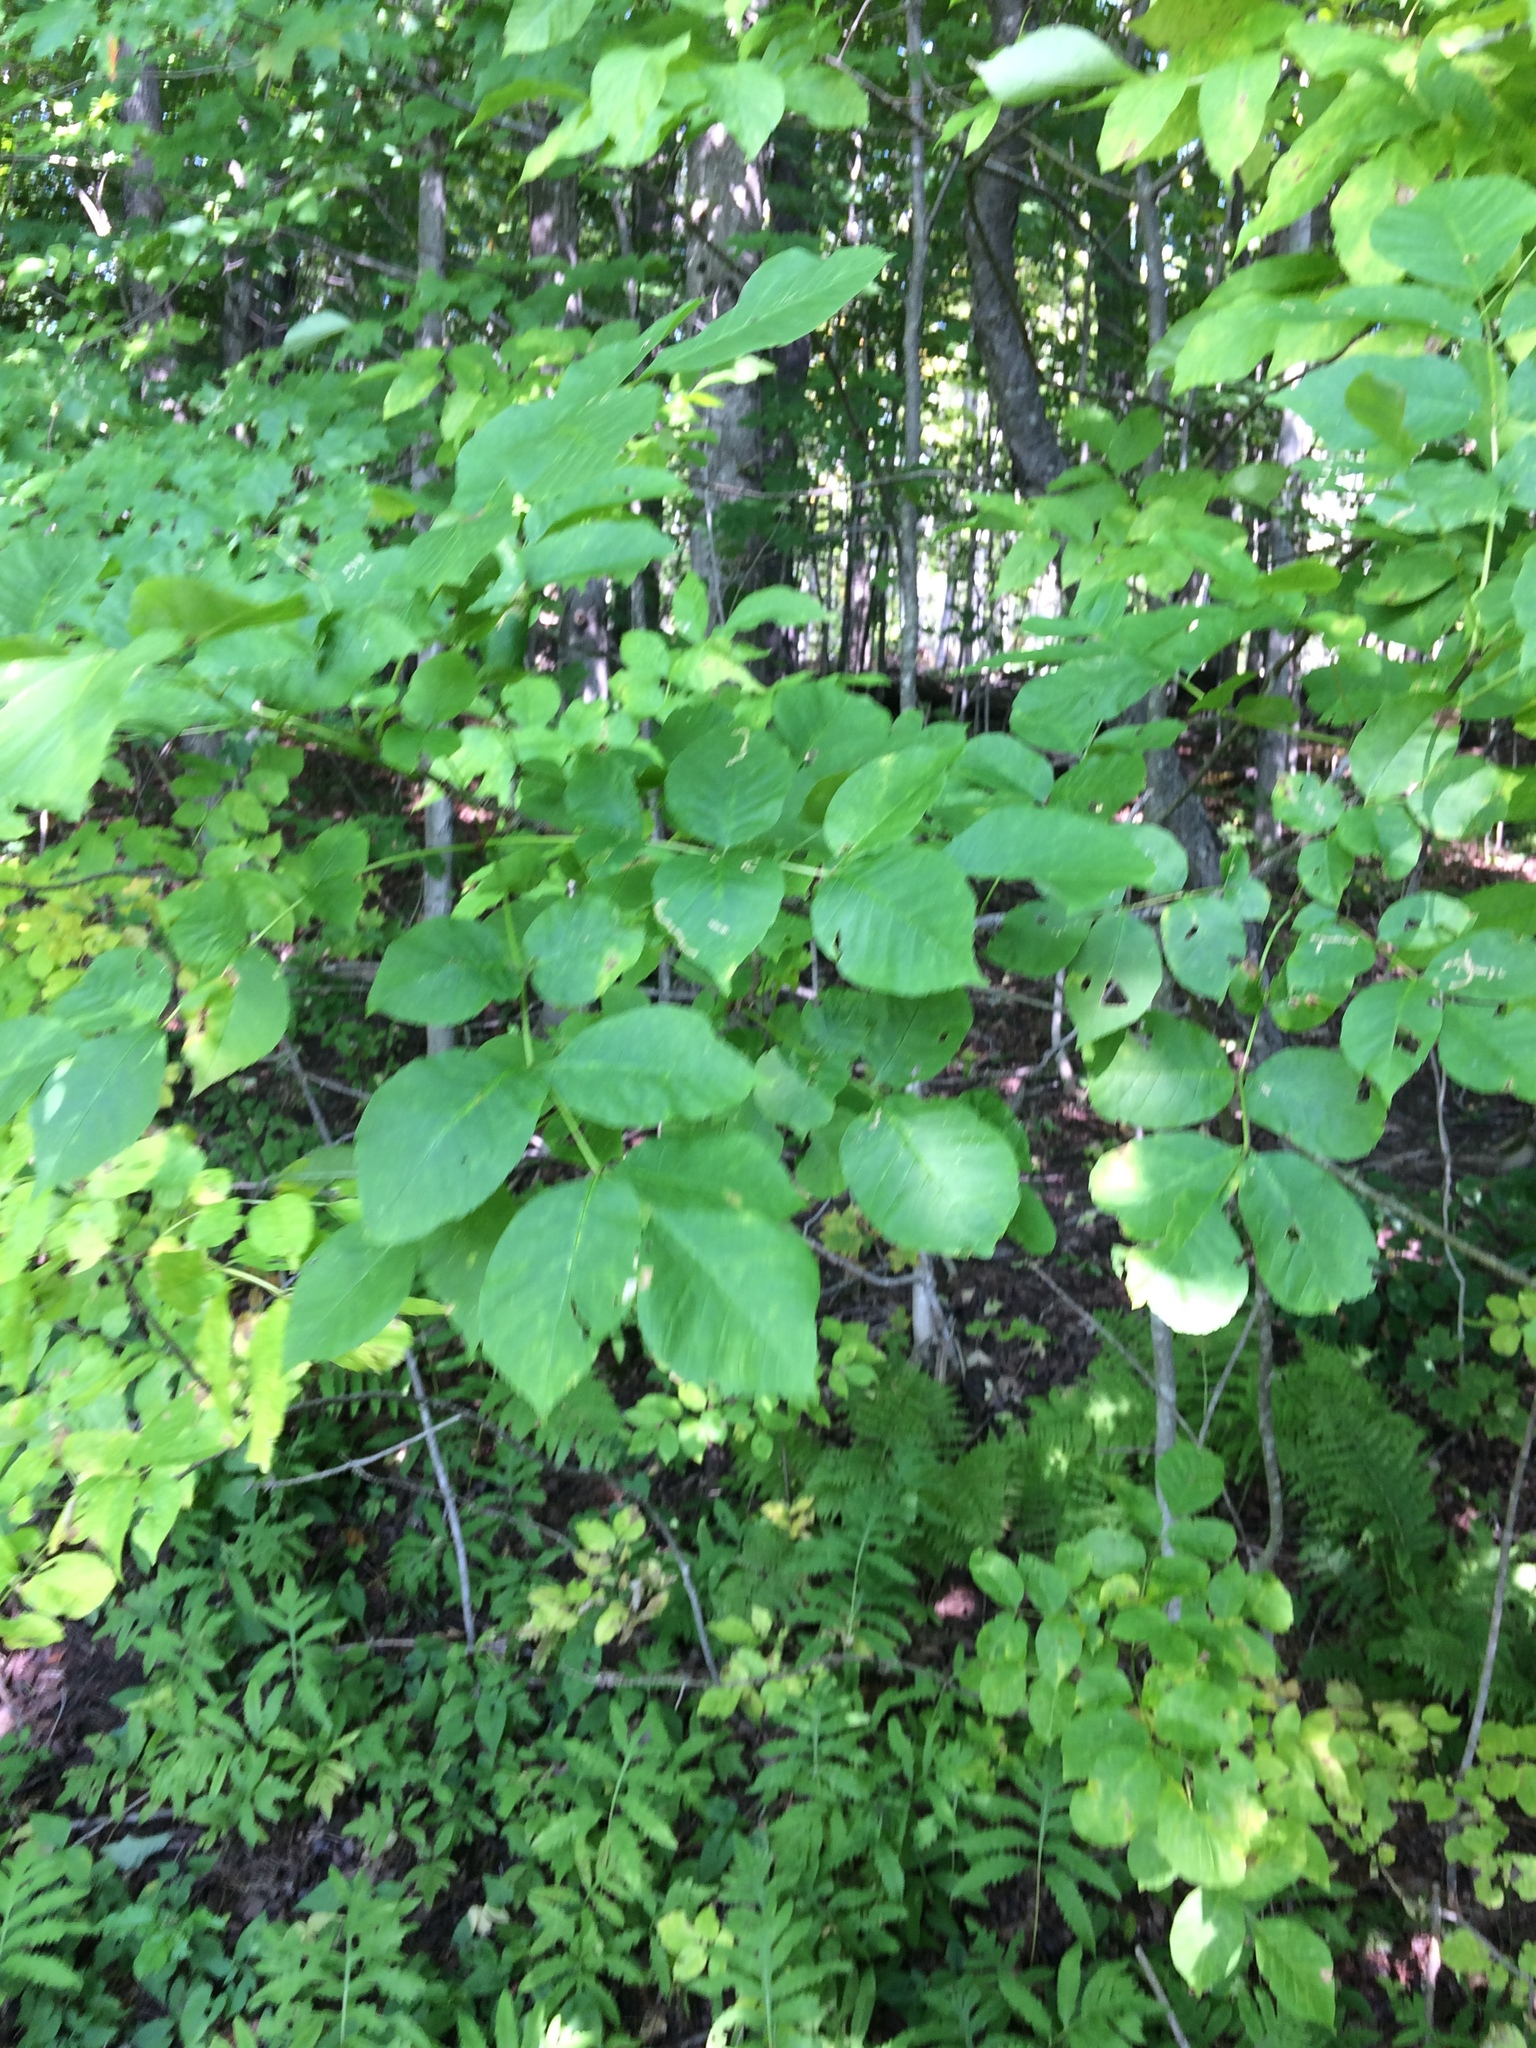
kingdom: Plantae
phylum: Tracheophyta
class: Magnoliopsida
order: Lamiales
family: Oleaceae
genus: Fraxinus
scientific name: Fraxinus americana
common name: White ash
